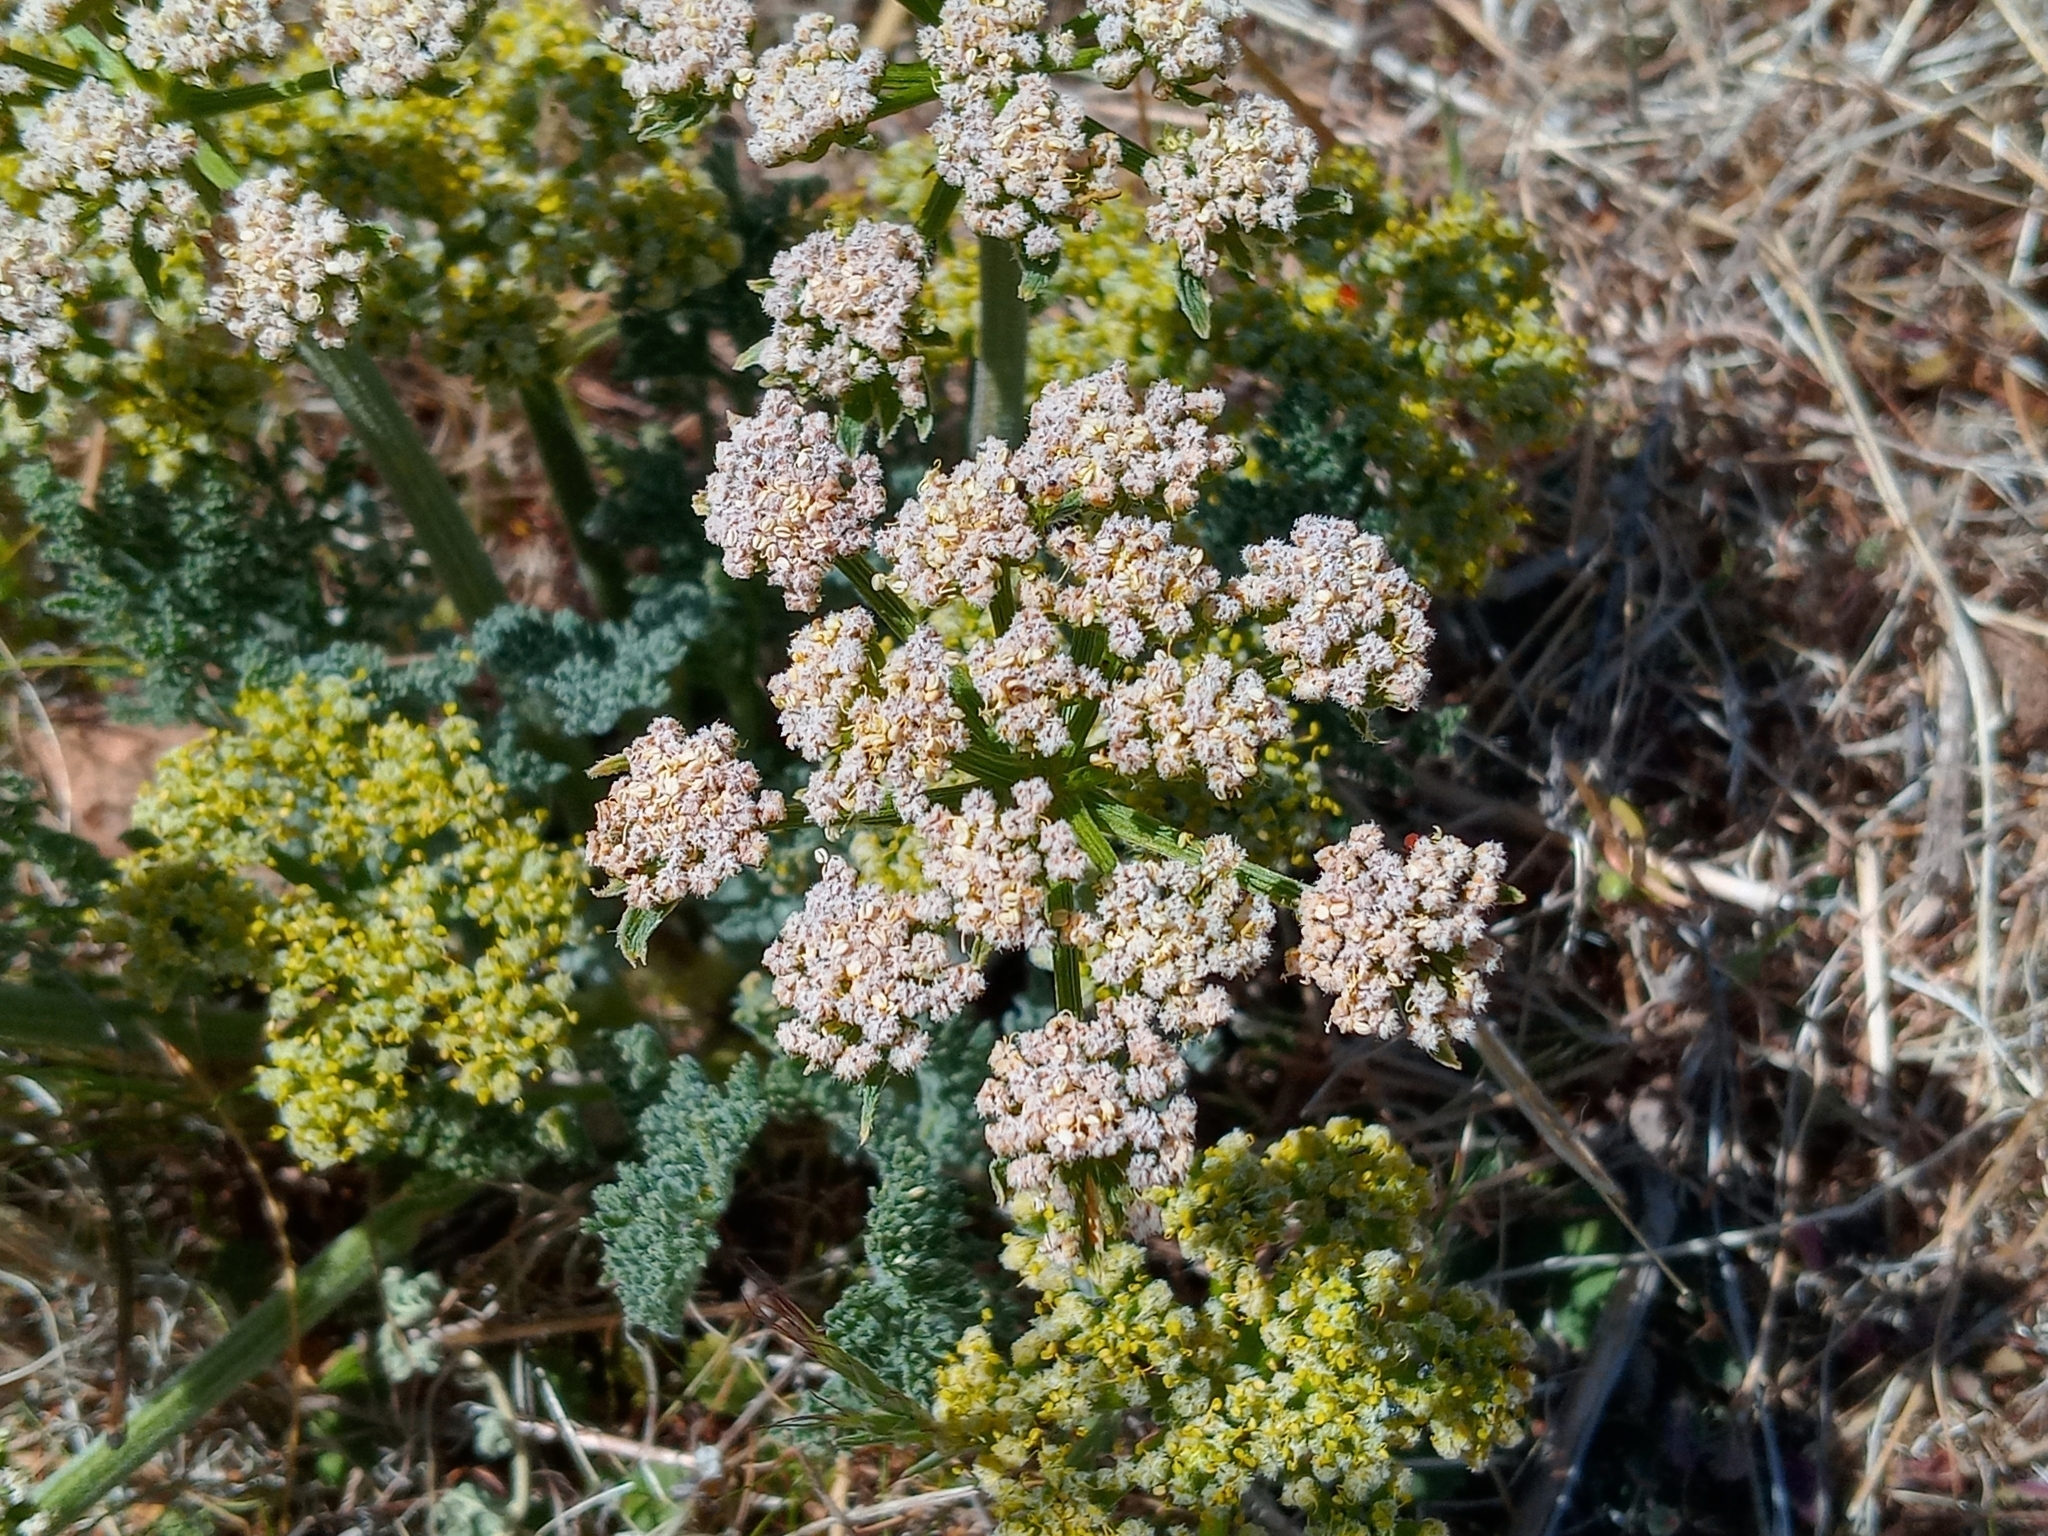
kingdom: Plantae
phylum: Tracheophyta
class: Magnoliopsida
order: Apiales
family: Apiaceae
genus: Lomatium
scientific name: Lomatium dasycarpum
